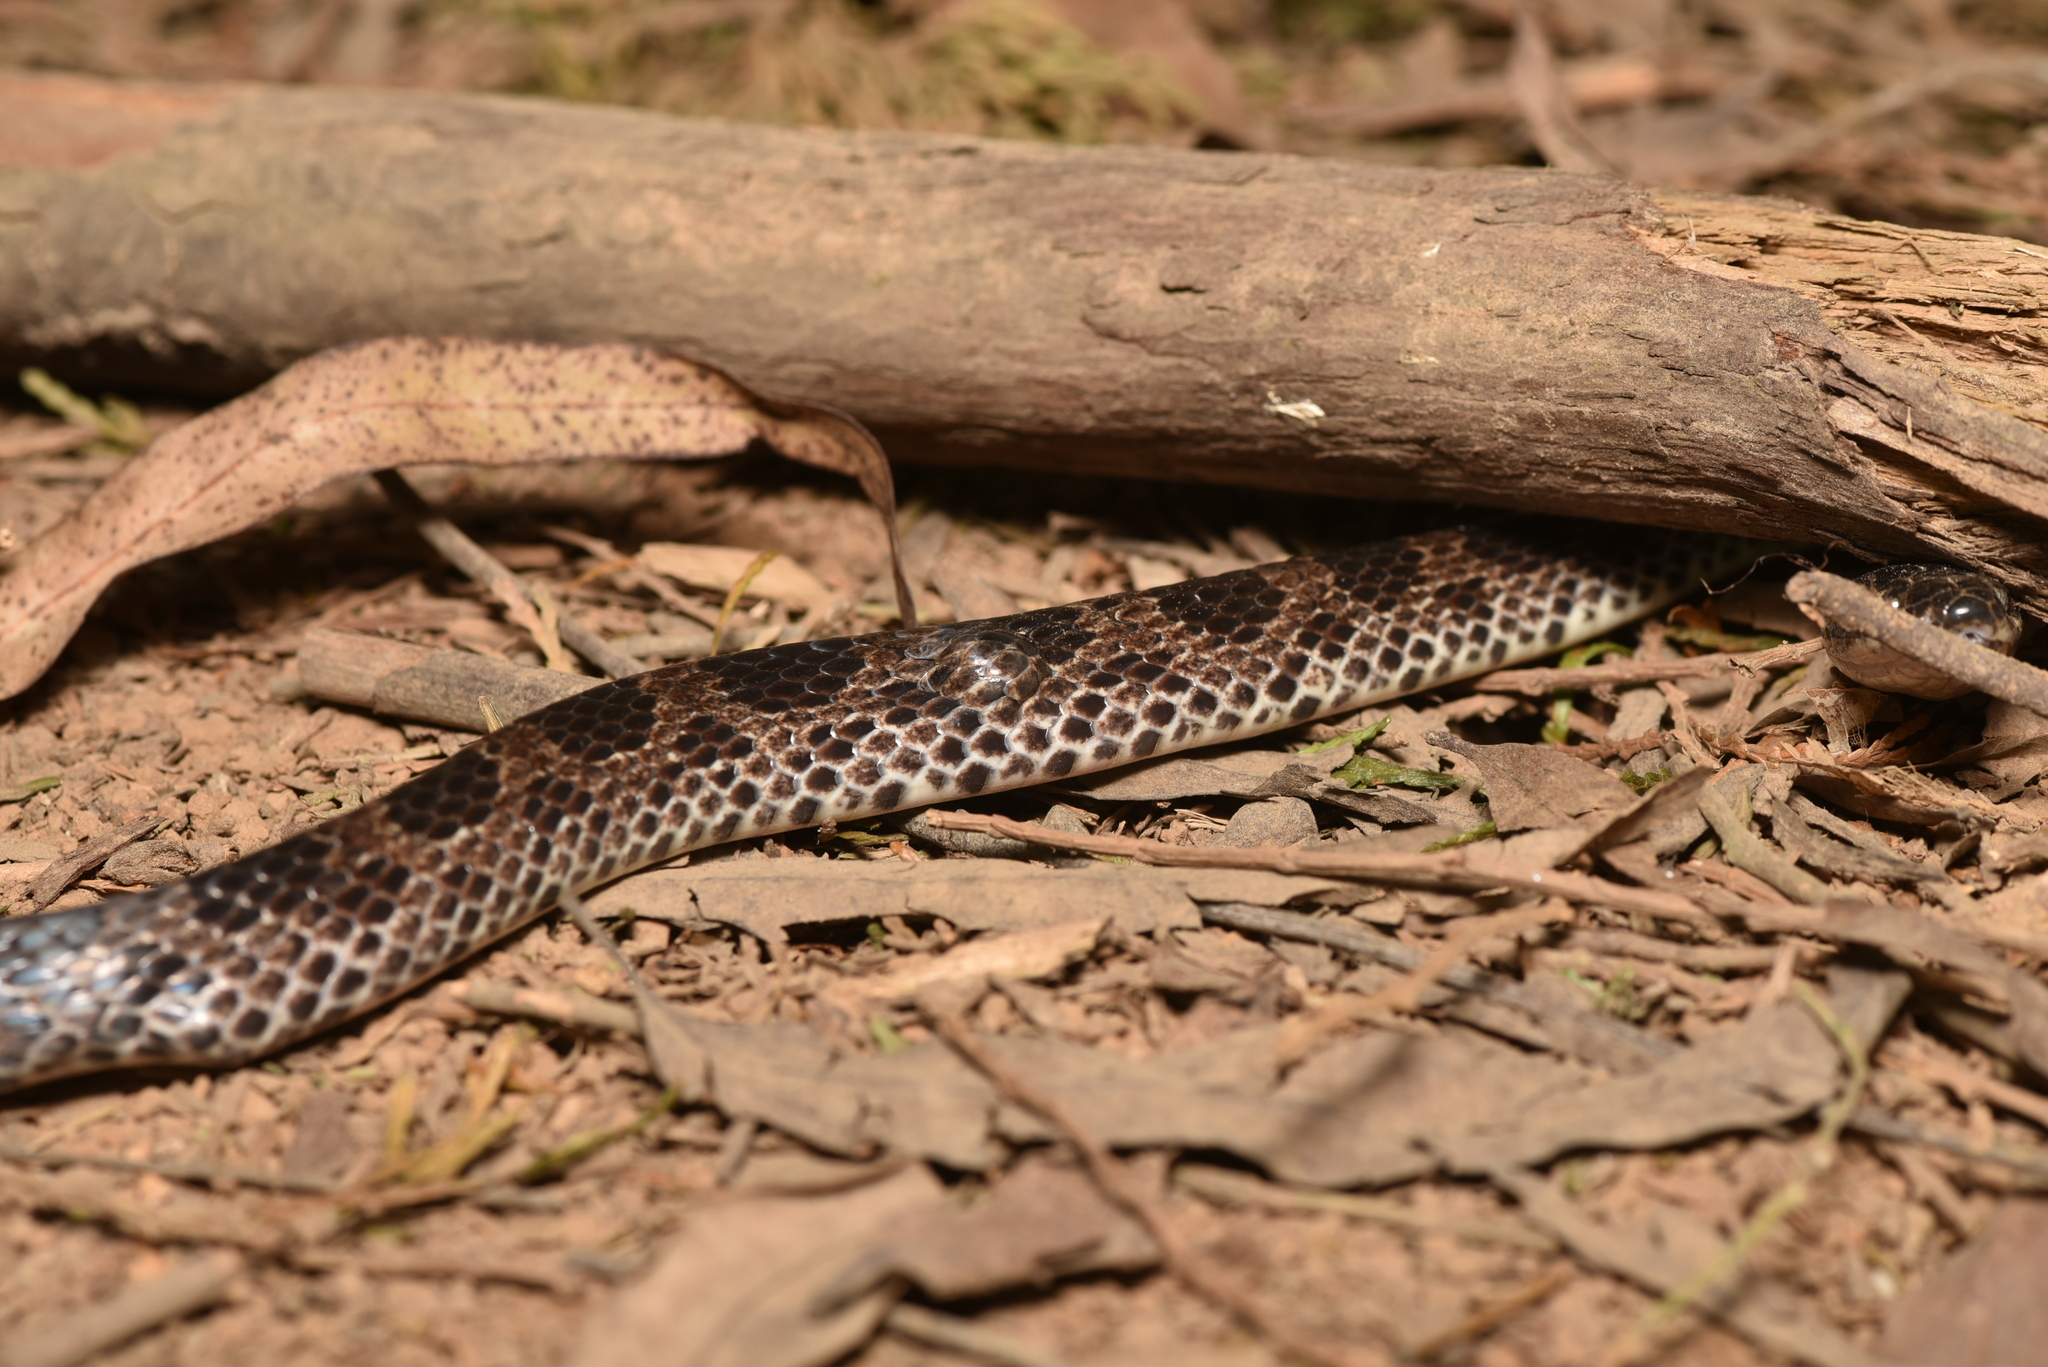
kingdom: Animalia
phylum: Chordata
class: Squamata
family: Colubridae
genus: Lycodon
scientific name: Lycodon rufozonatus
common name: Red-banded snake
